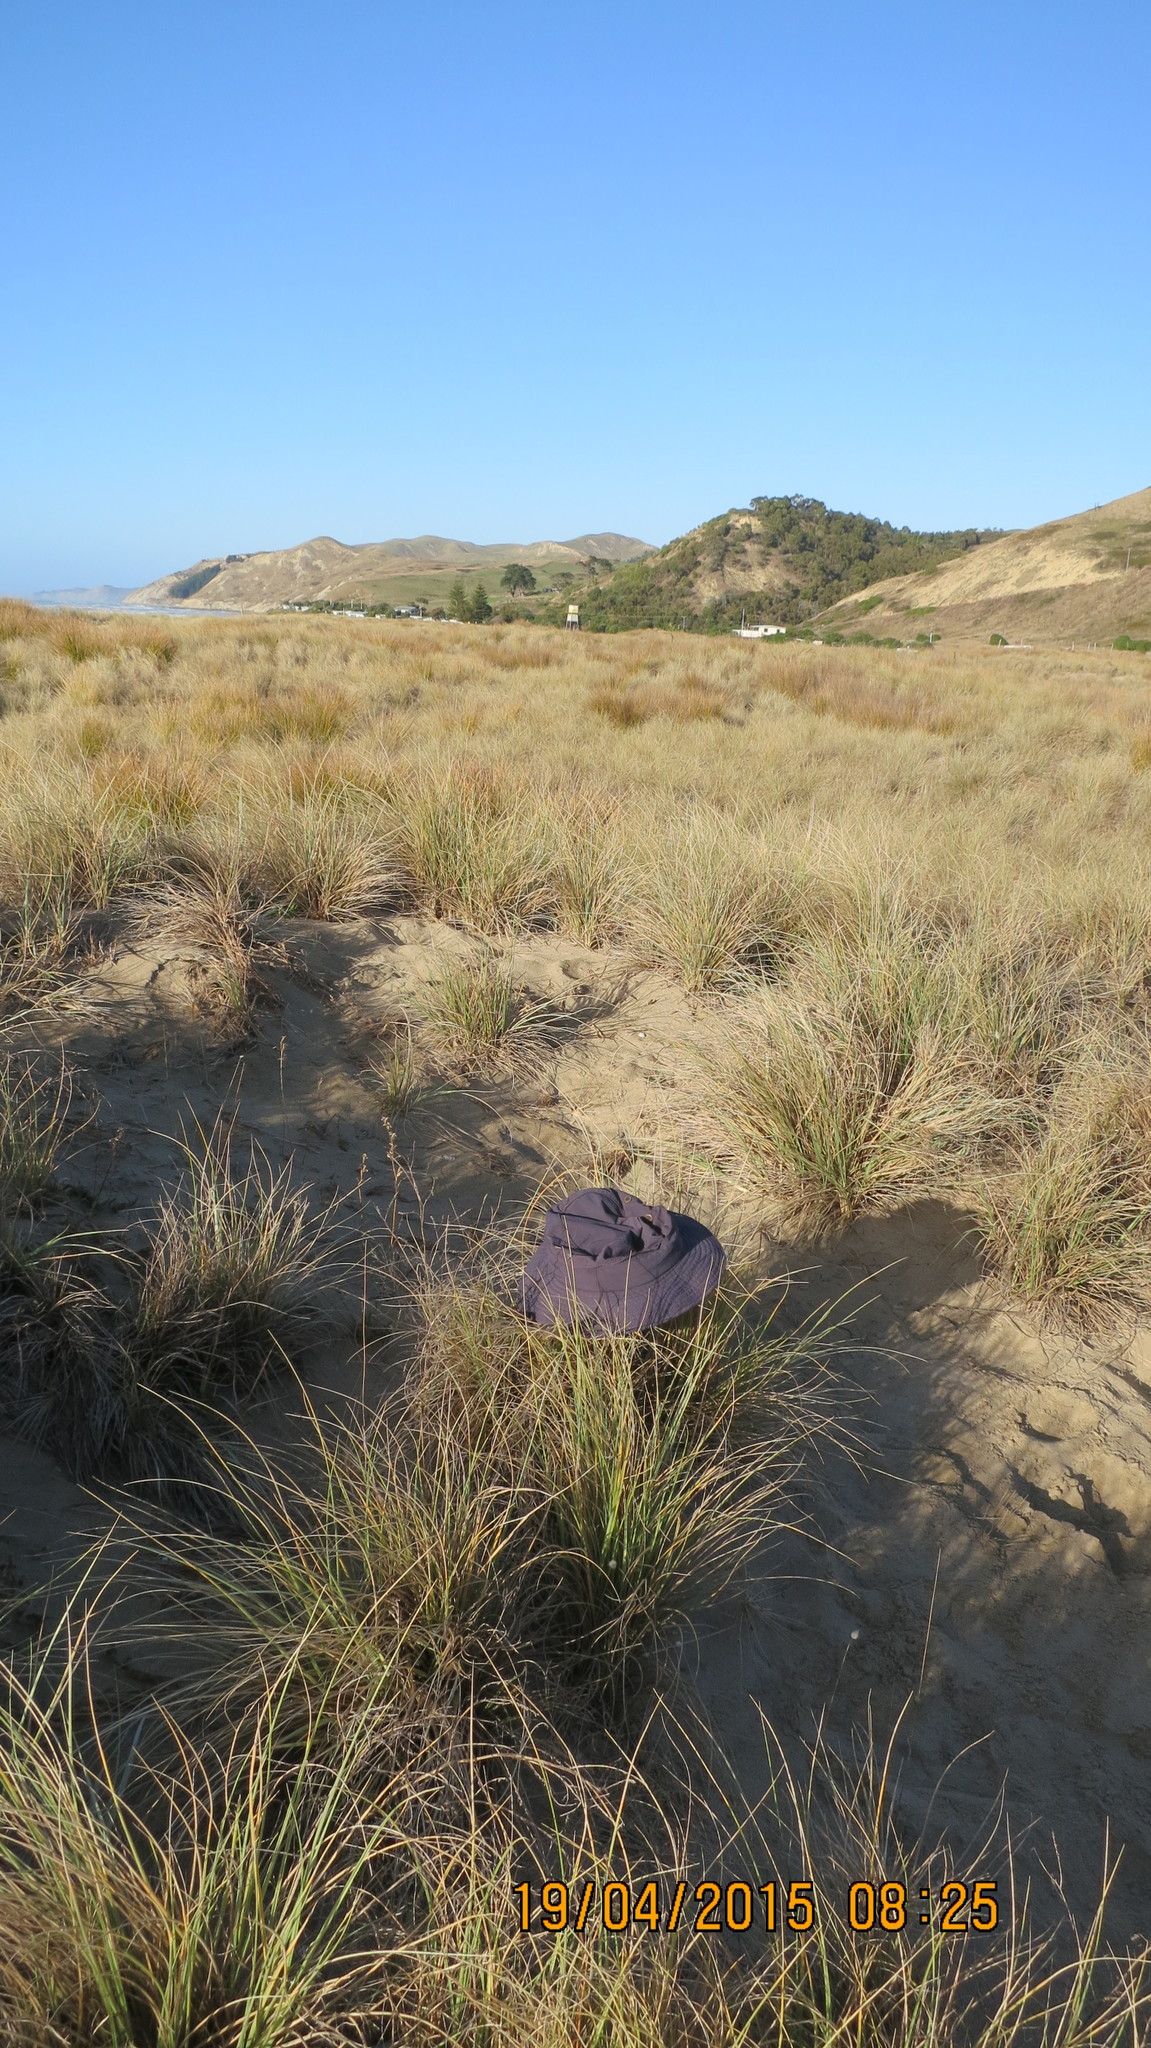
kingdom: Plantae
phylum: Tracheophyta
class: Magnoliopsida
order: Solanales
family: Convolvulaceae
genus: Calystegia
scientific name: Calystegia soldanella
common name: Sea bindweed
